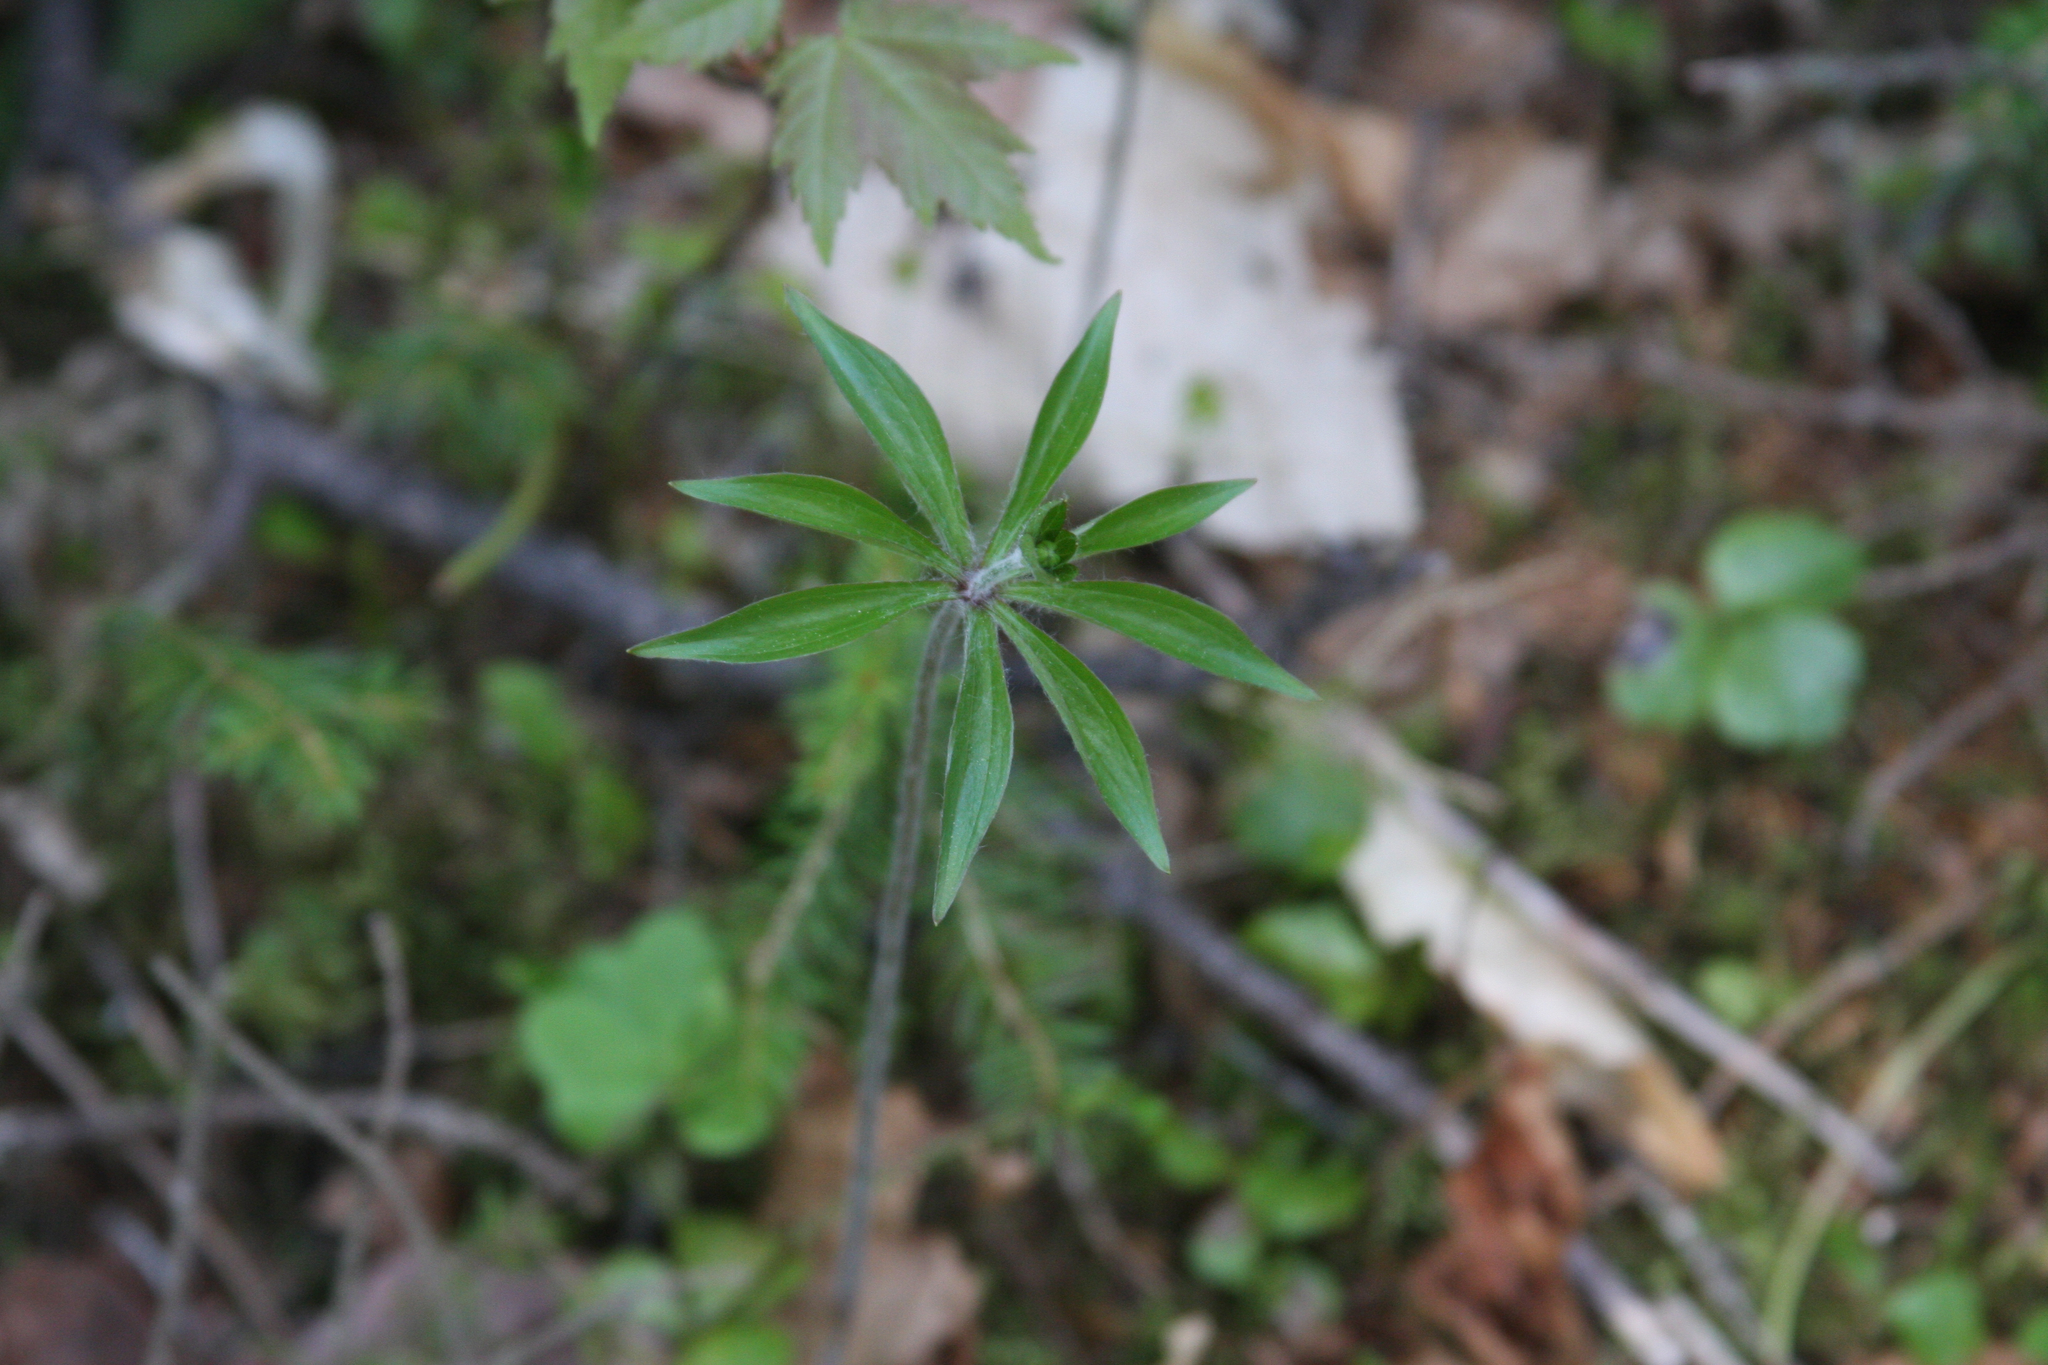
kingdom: Plantae
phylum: Tracheophyta
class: Liliopsida
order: Liliales
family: Liliaceae
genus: Medeola
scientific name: Medeola virginiana
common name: Indian cucumber-root
